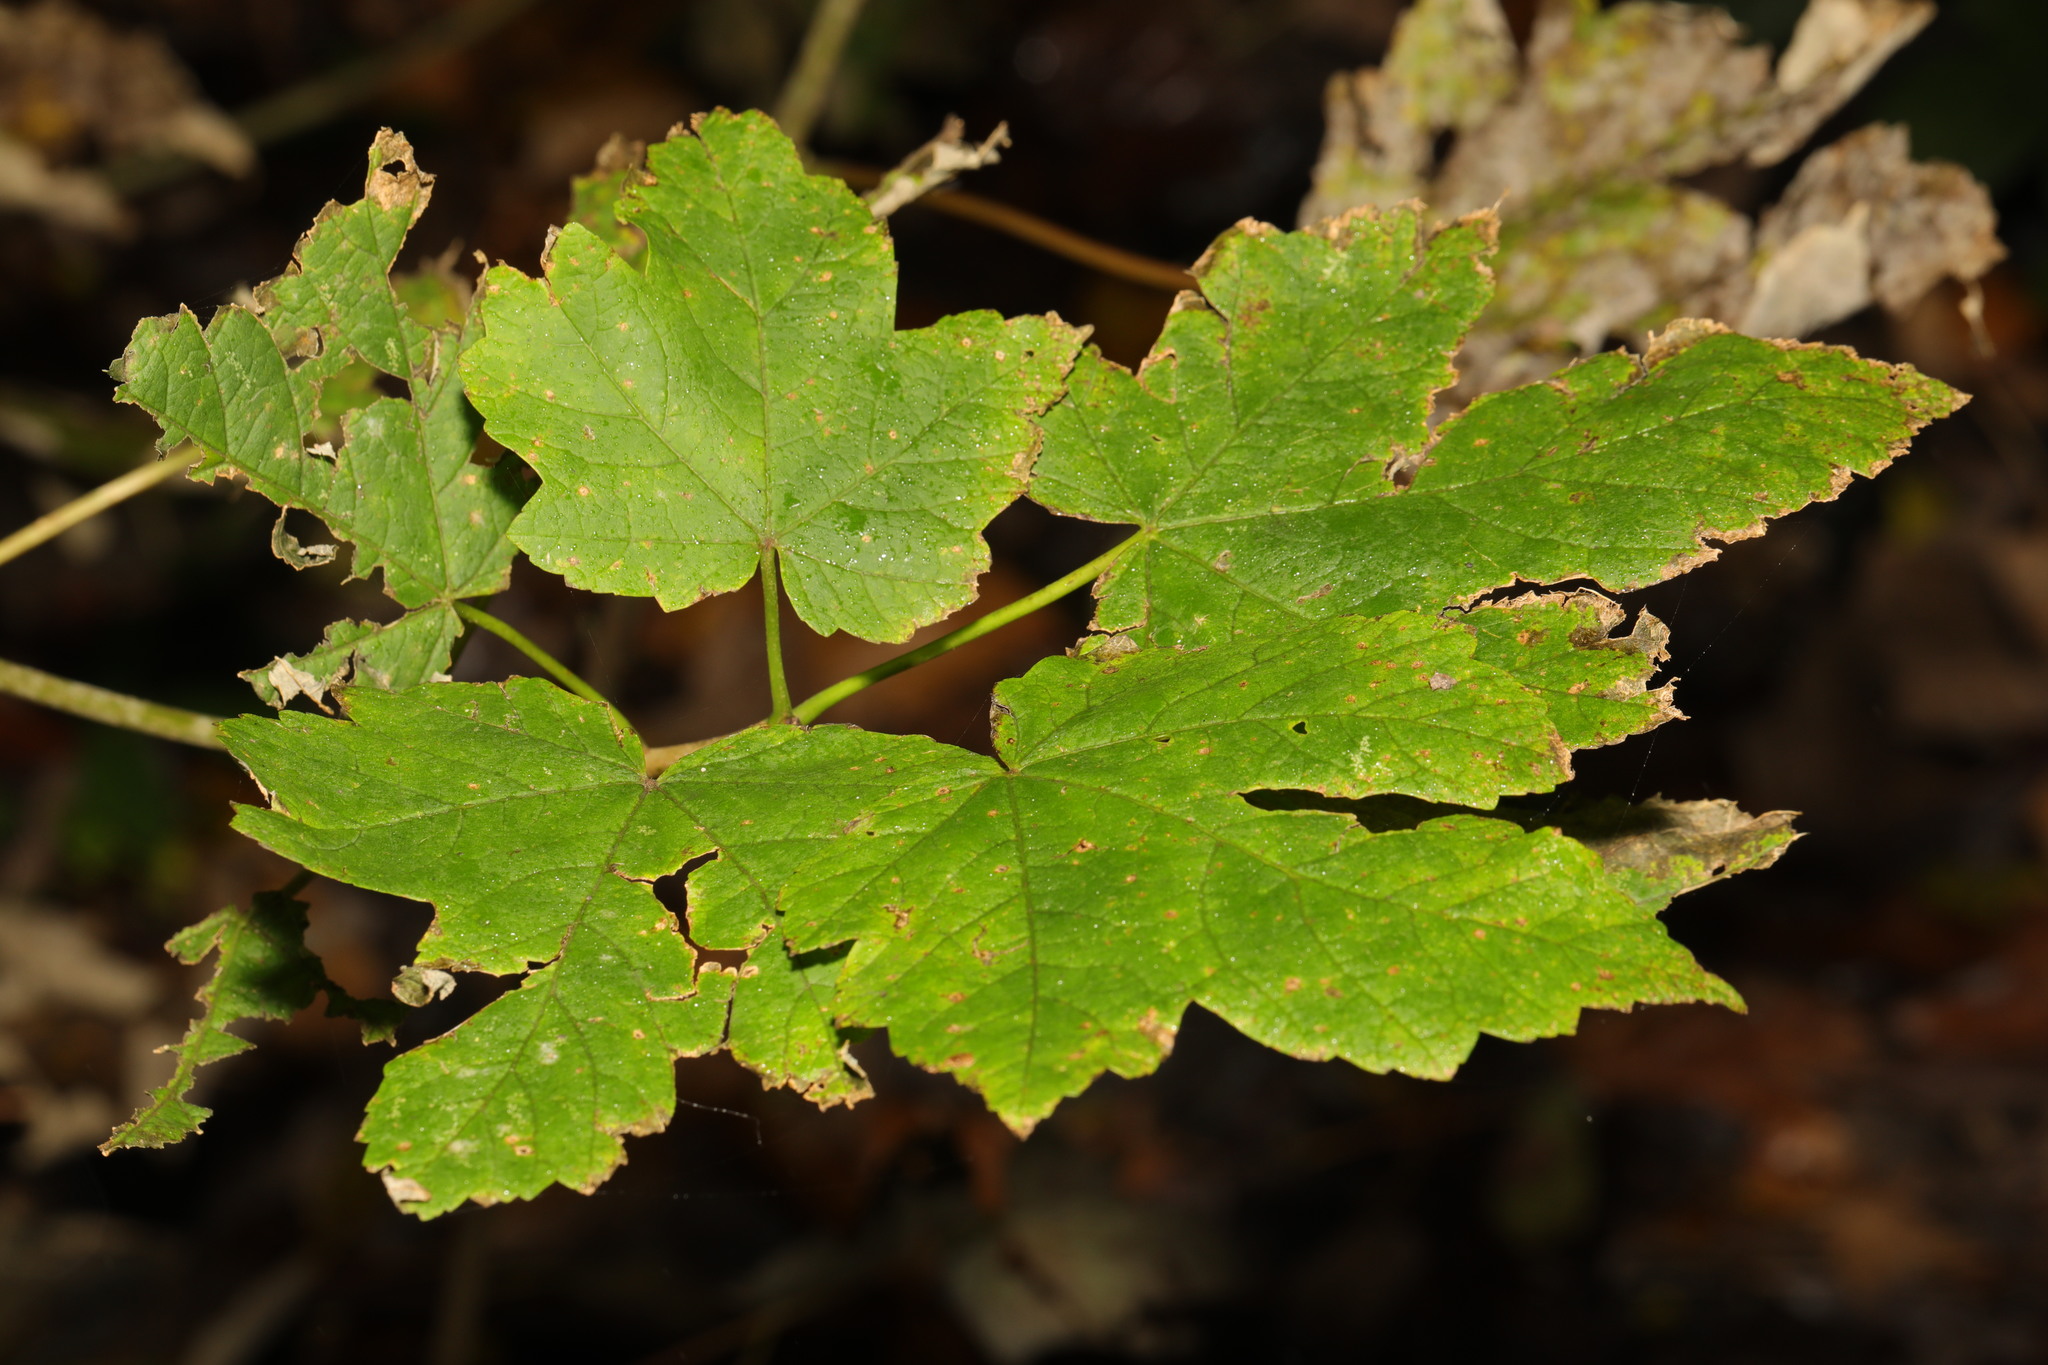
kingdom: Plantae
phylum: Tracheophyta
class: Magnoliopsida
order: Sapindales
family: Sapindaceae
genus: Acer
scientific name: Acer pseudoplatanus
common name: Sycamore
